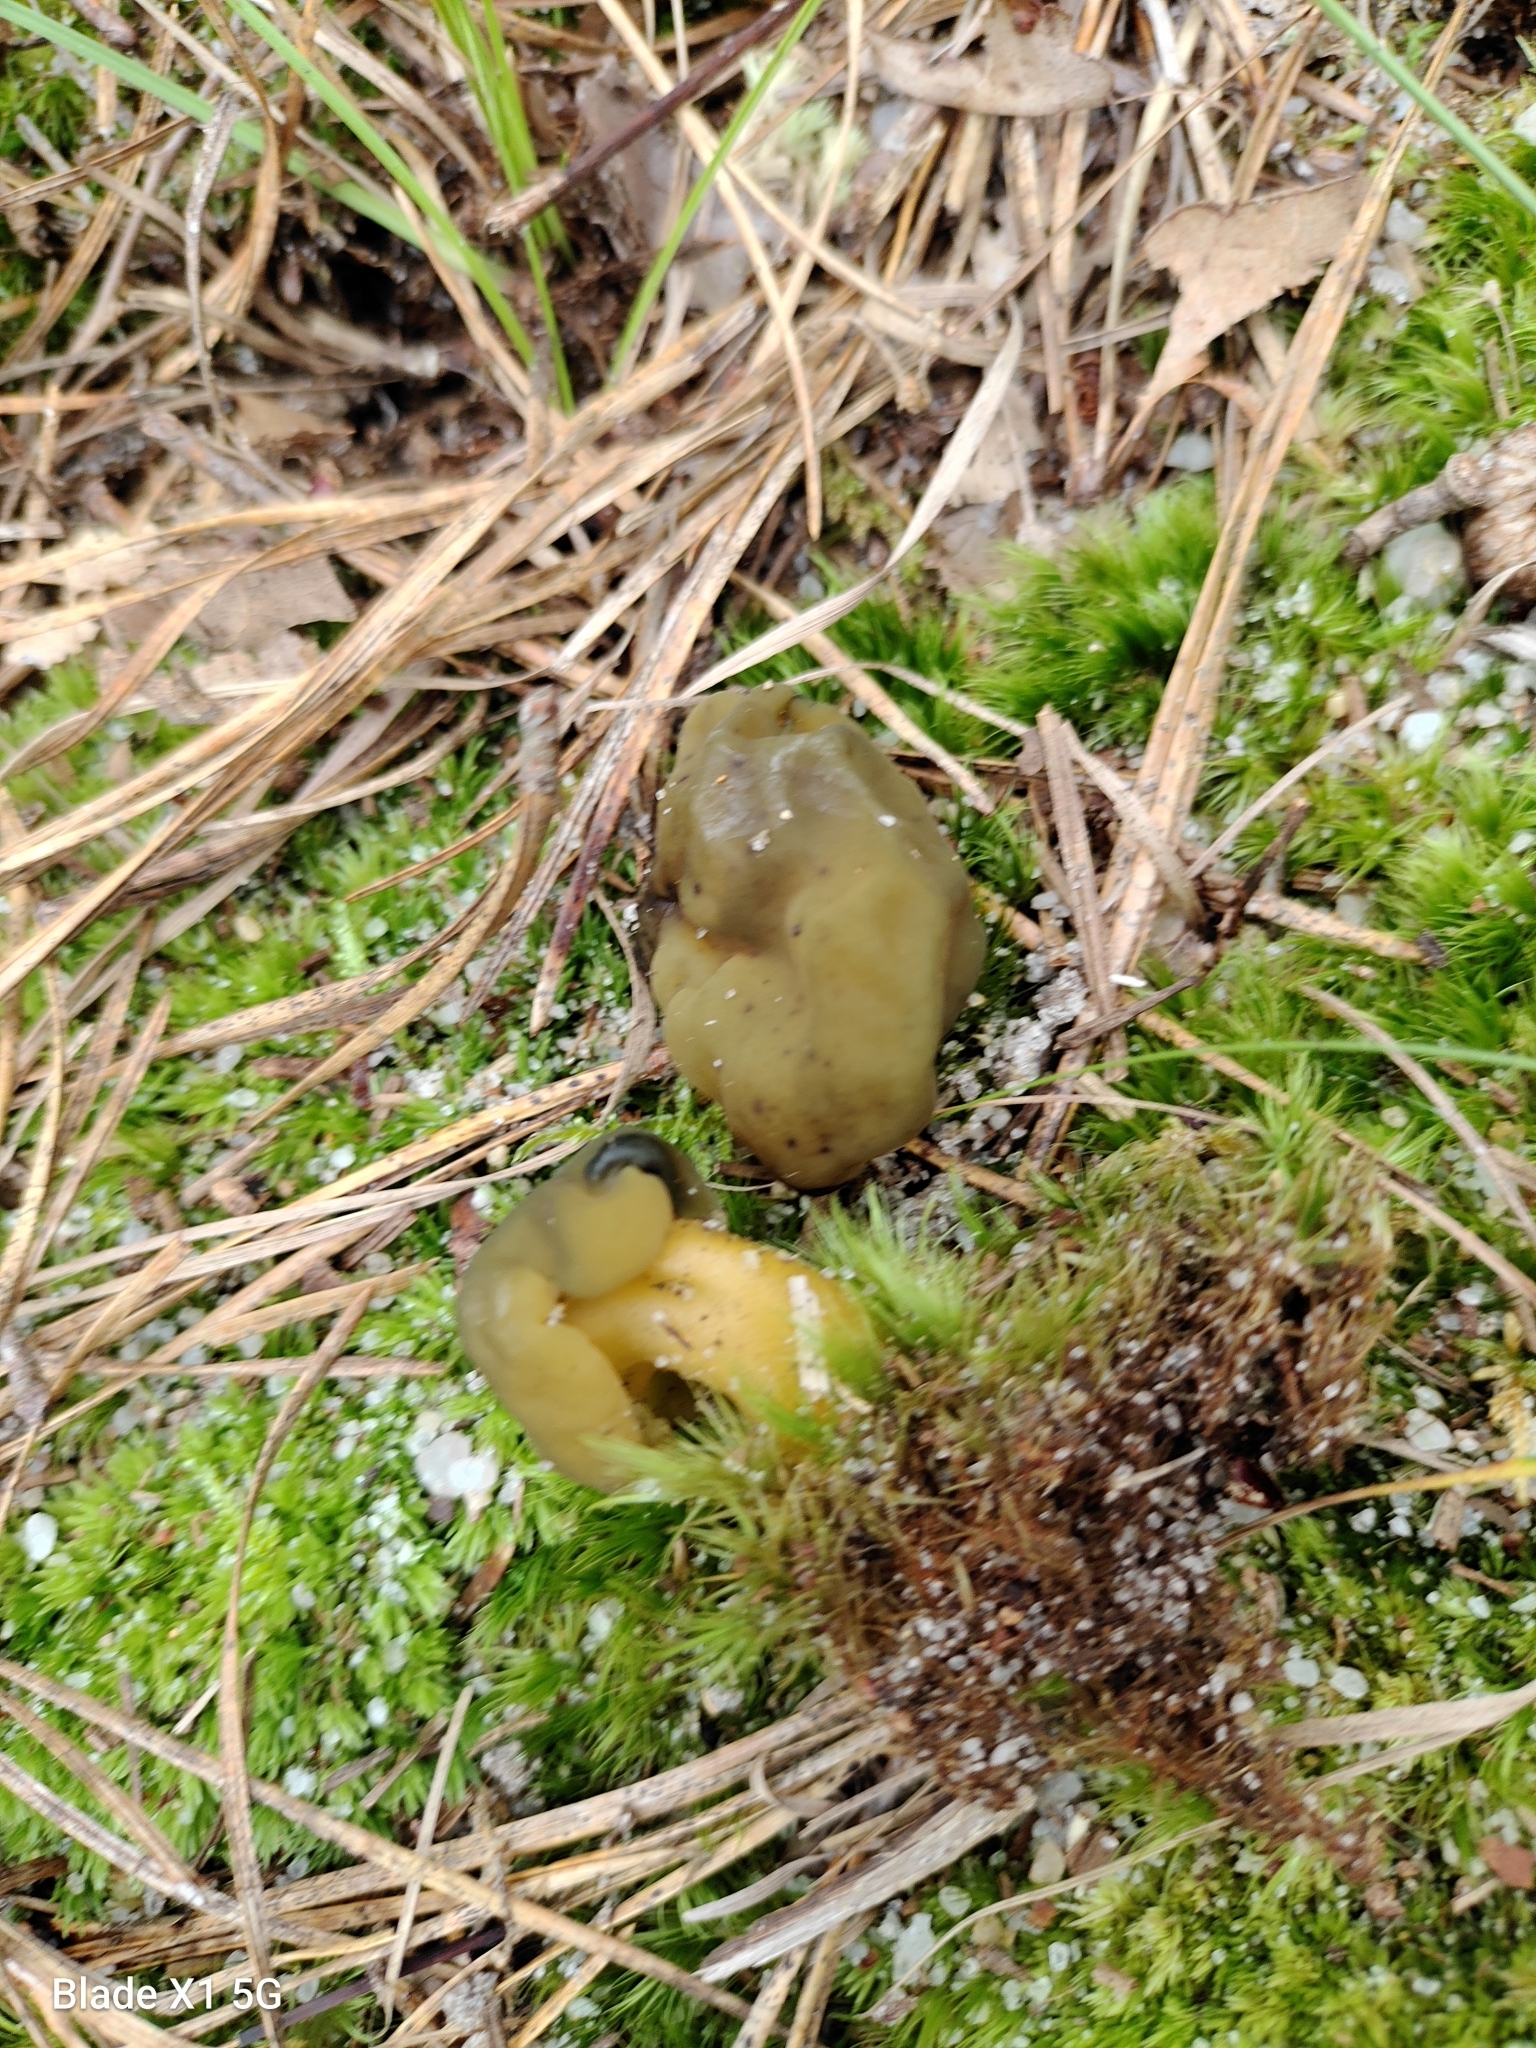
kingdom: Fungi
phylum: Ascomycota
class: Leotiomycetes
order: Leotiales
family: Leotiaceae
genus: Leotia
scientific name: Leotia lubrica
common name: Jellybaby
